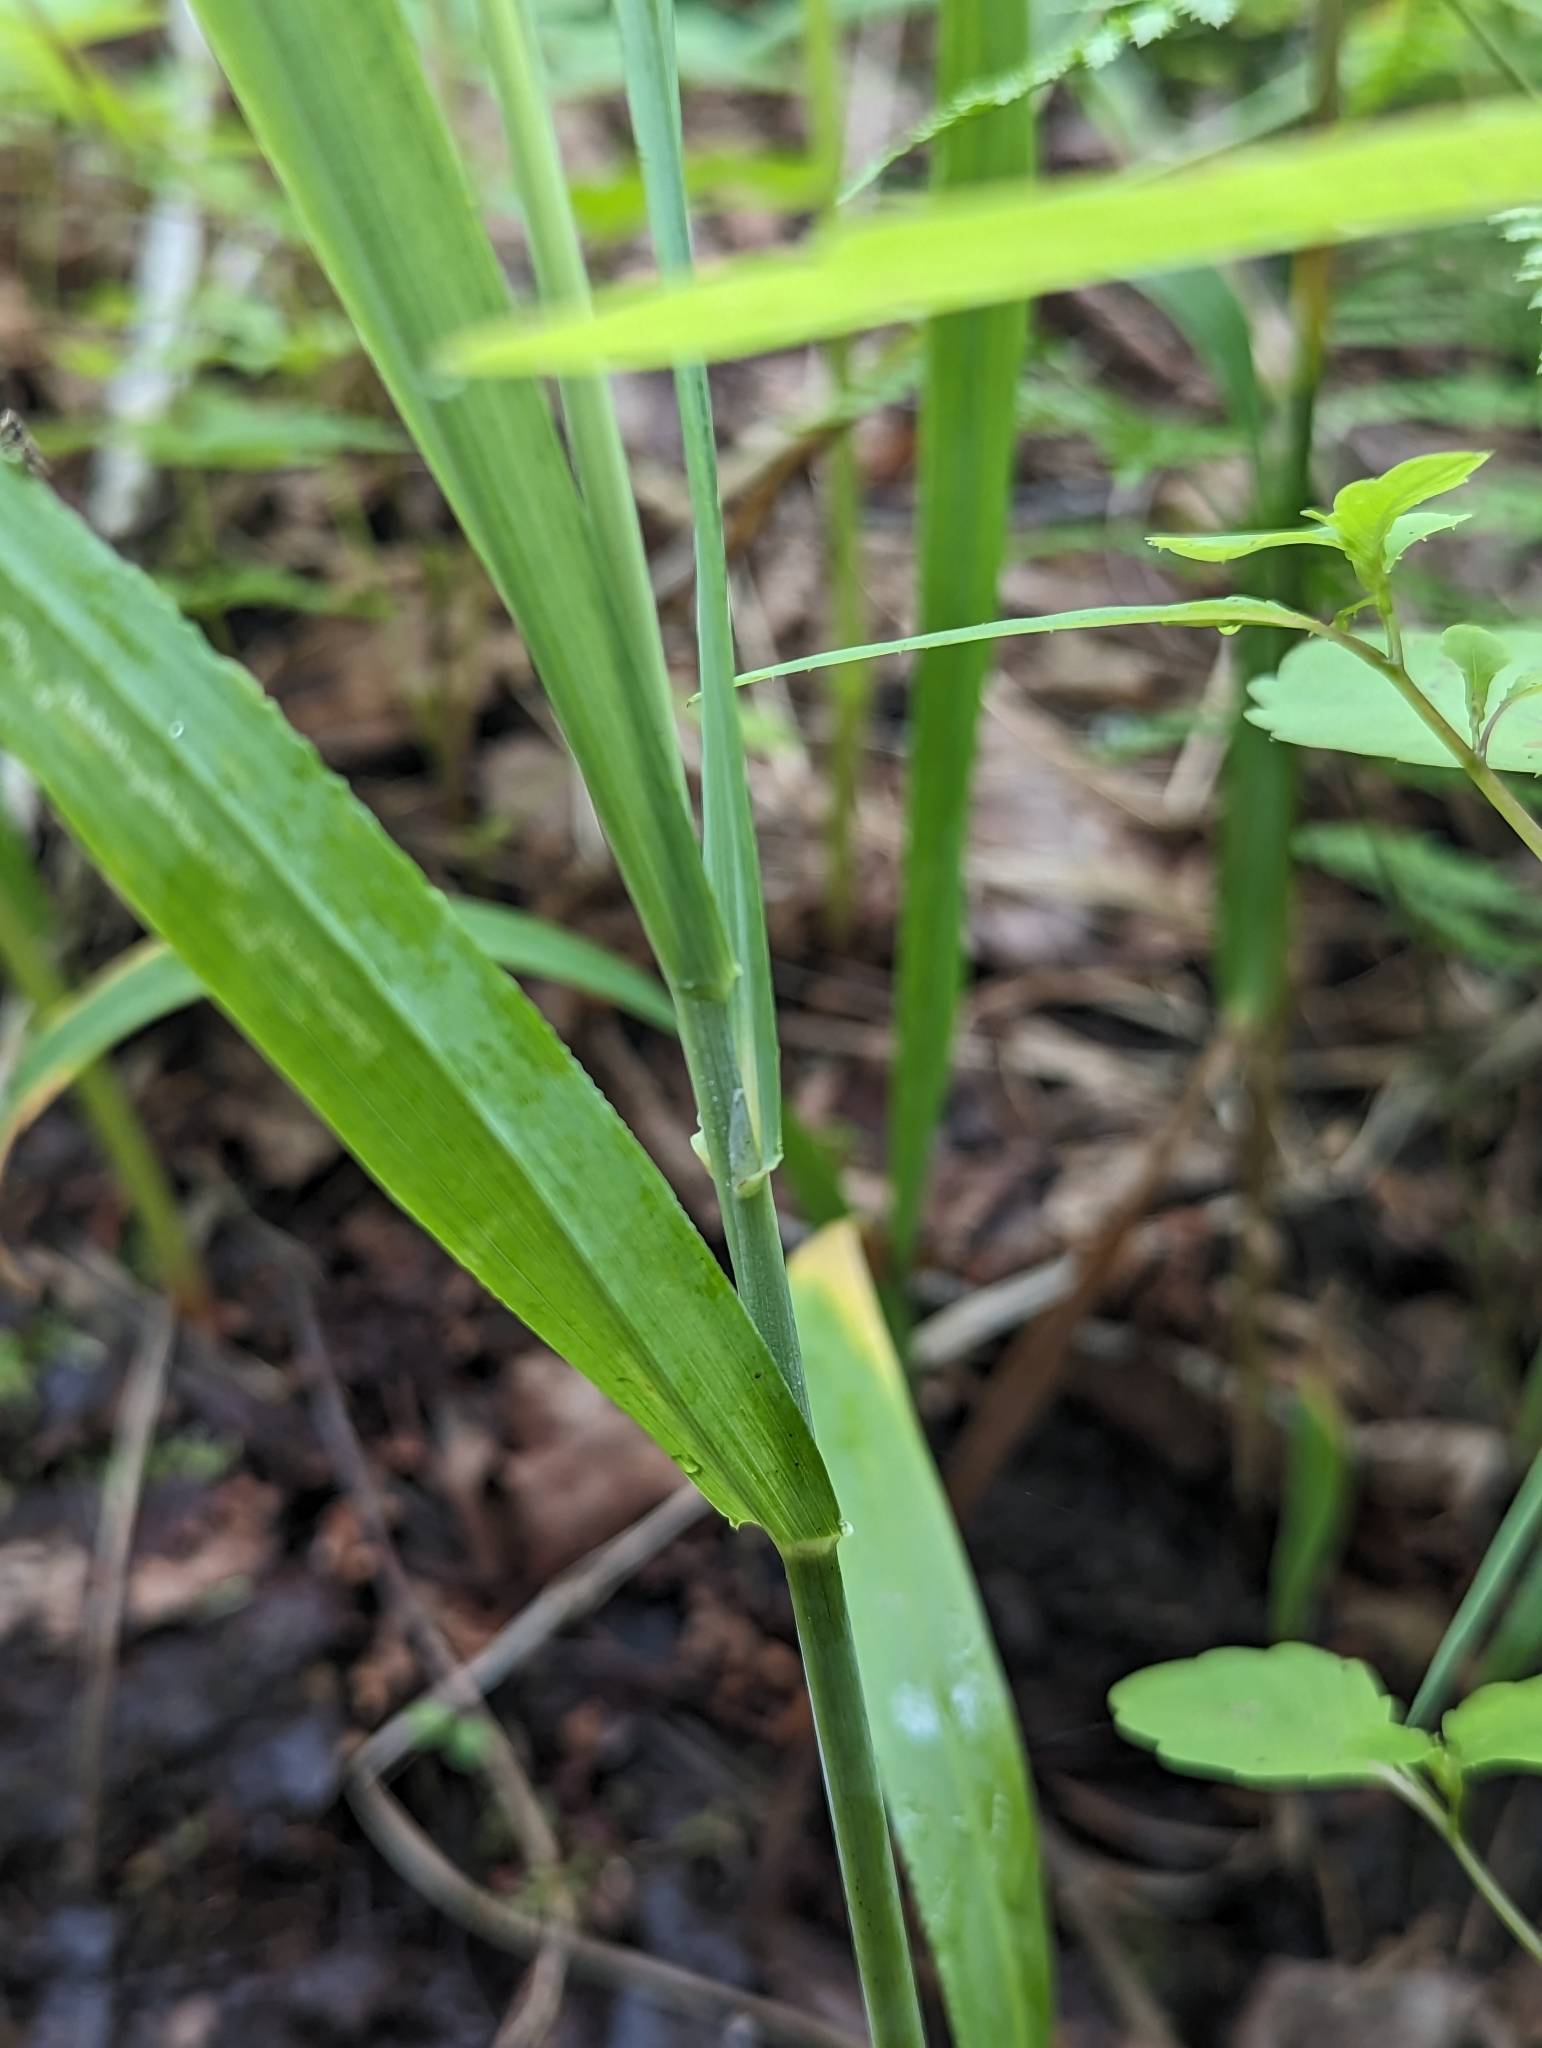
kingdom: Plantae
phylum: Tracheophyta
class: Liliopsida
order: Poales
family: Poaceae
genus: Milium
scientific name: Milium effusum
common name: Wood millet
